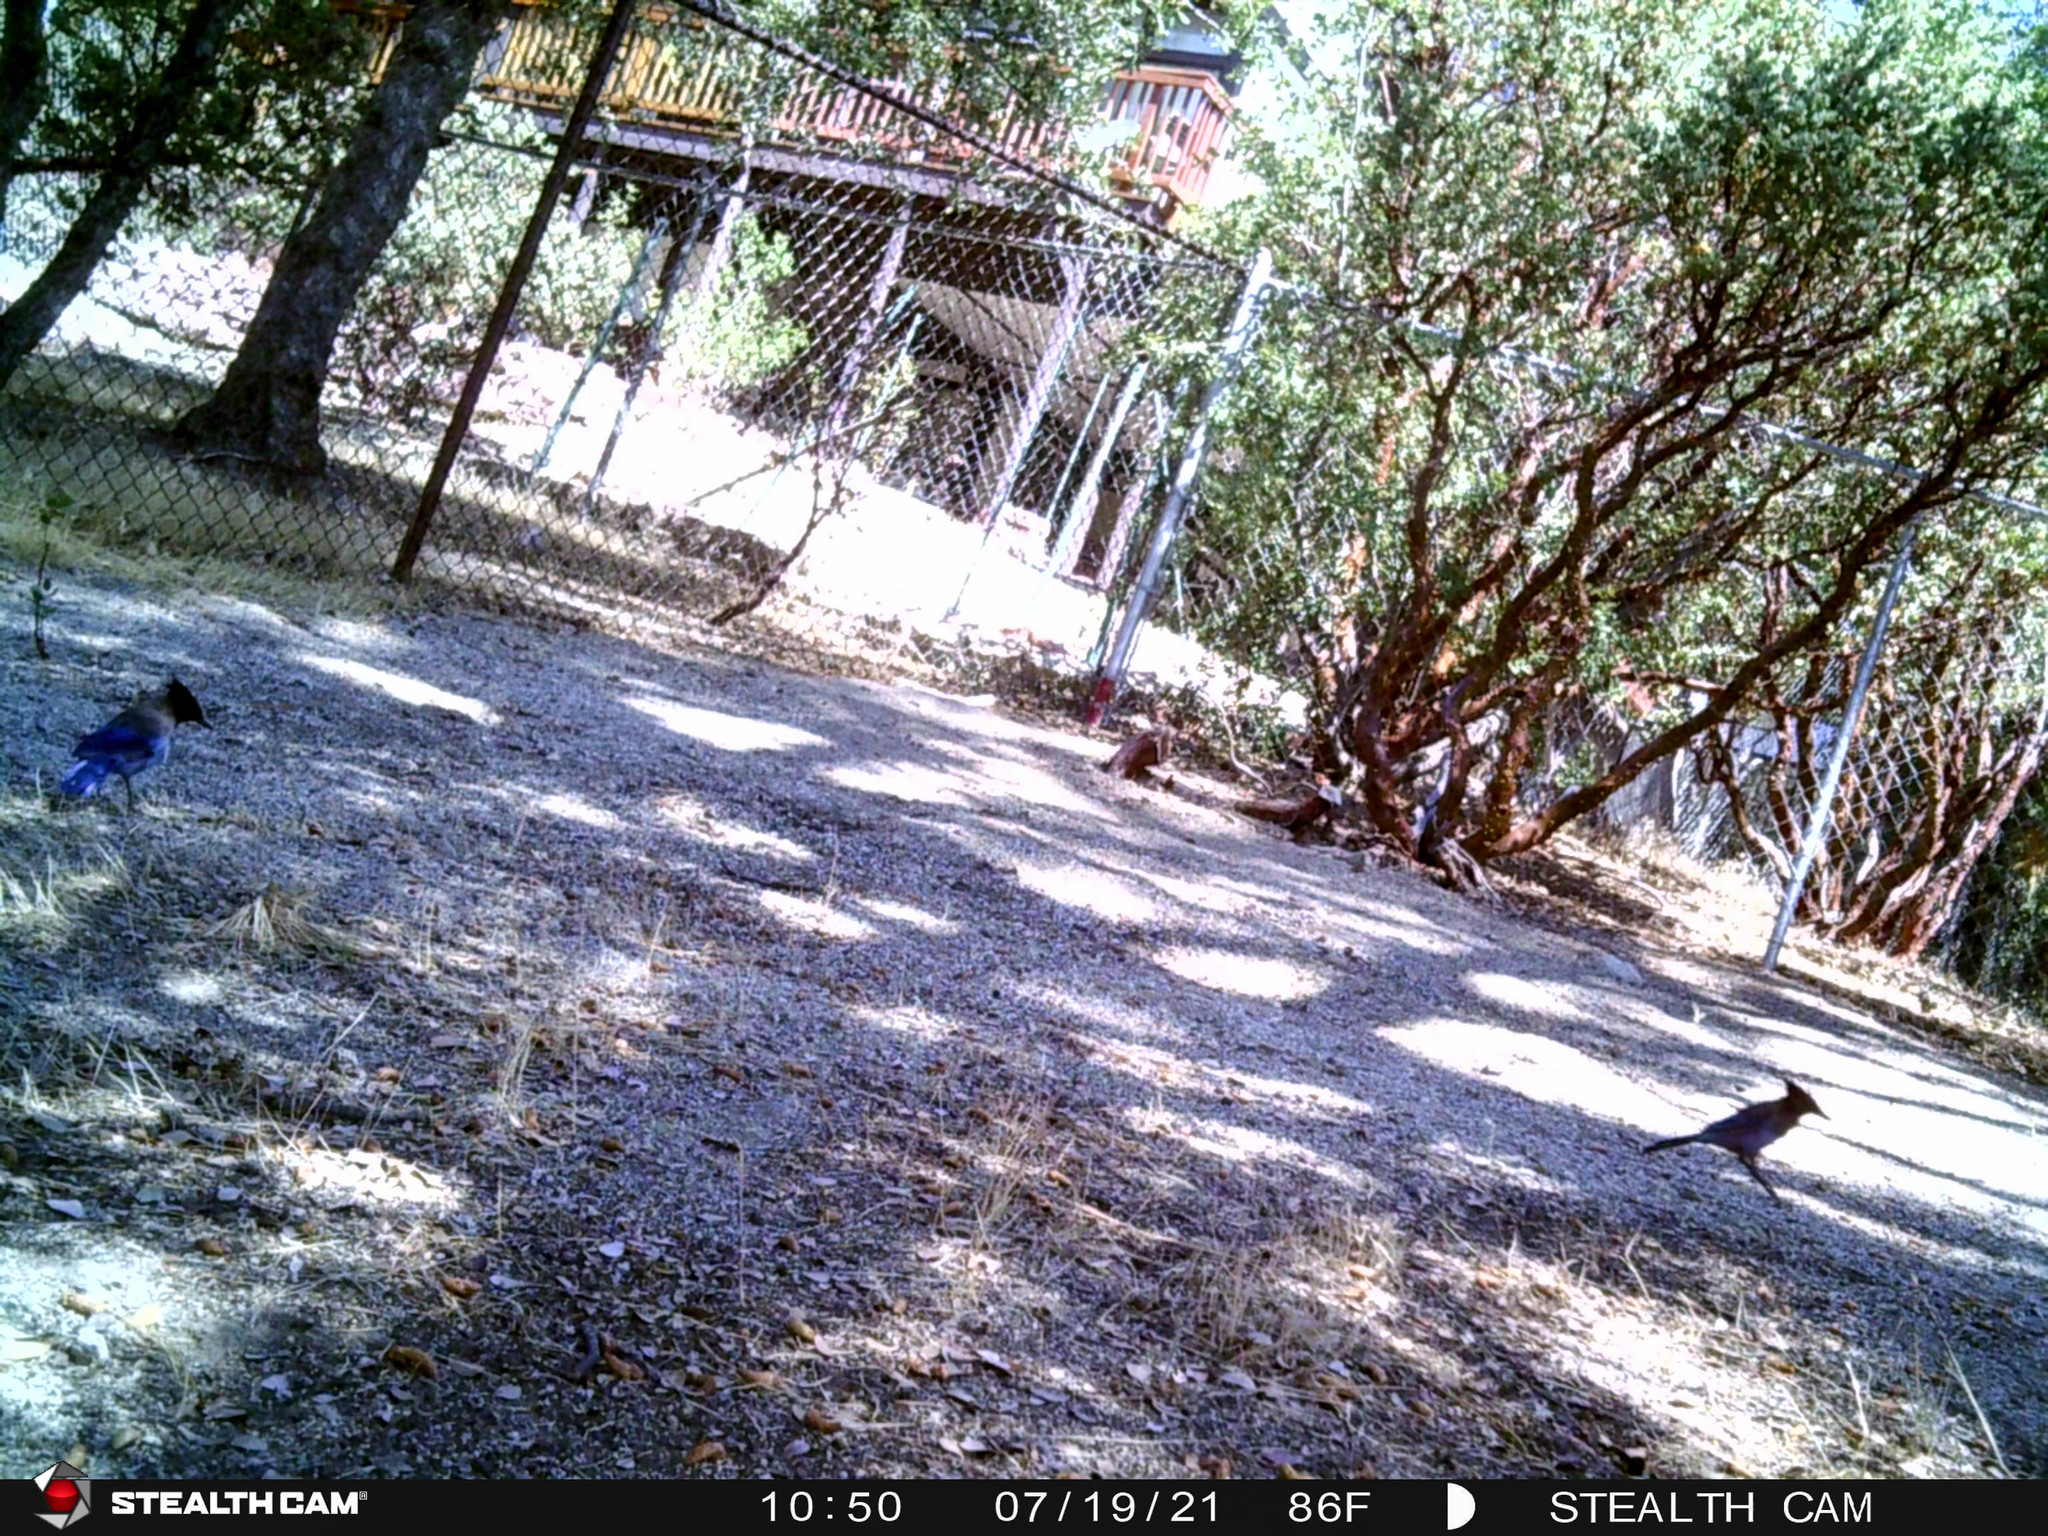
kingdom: Animalia
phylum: Chordata
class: Aves
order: Passeriformes
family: Corvidae
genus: Cyanocitta
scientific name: Cyanocitta stelleri
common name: Steller's jay
